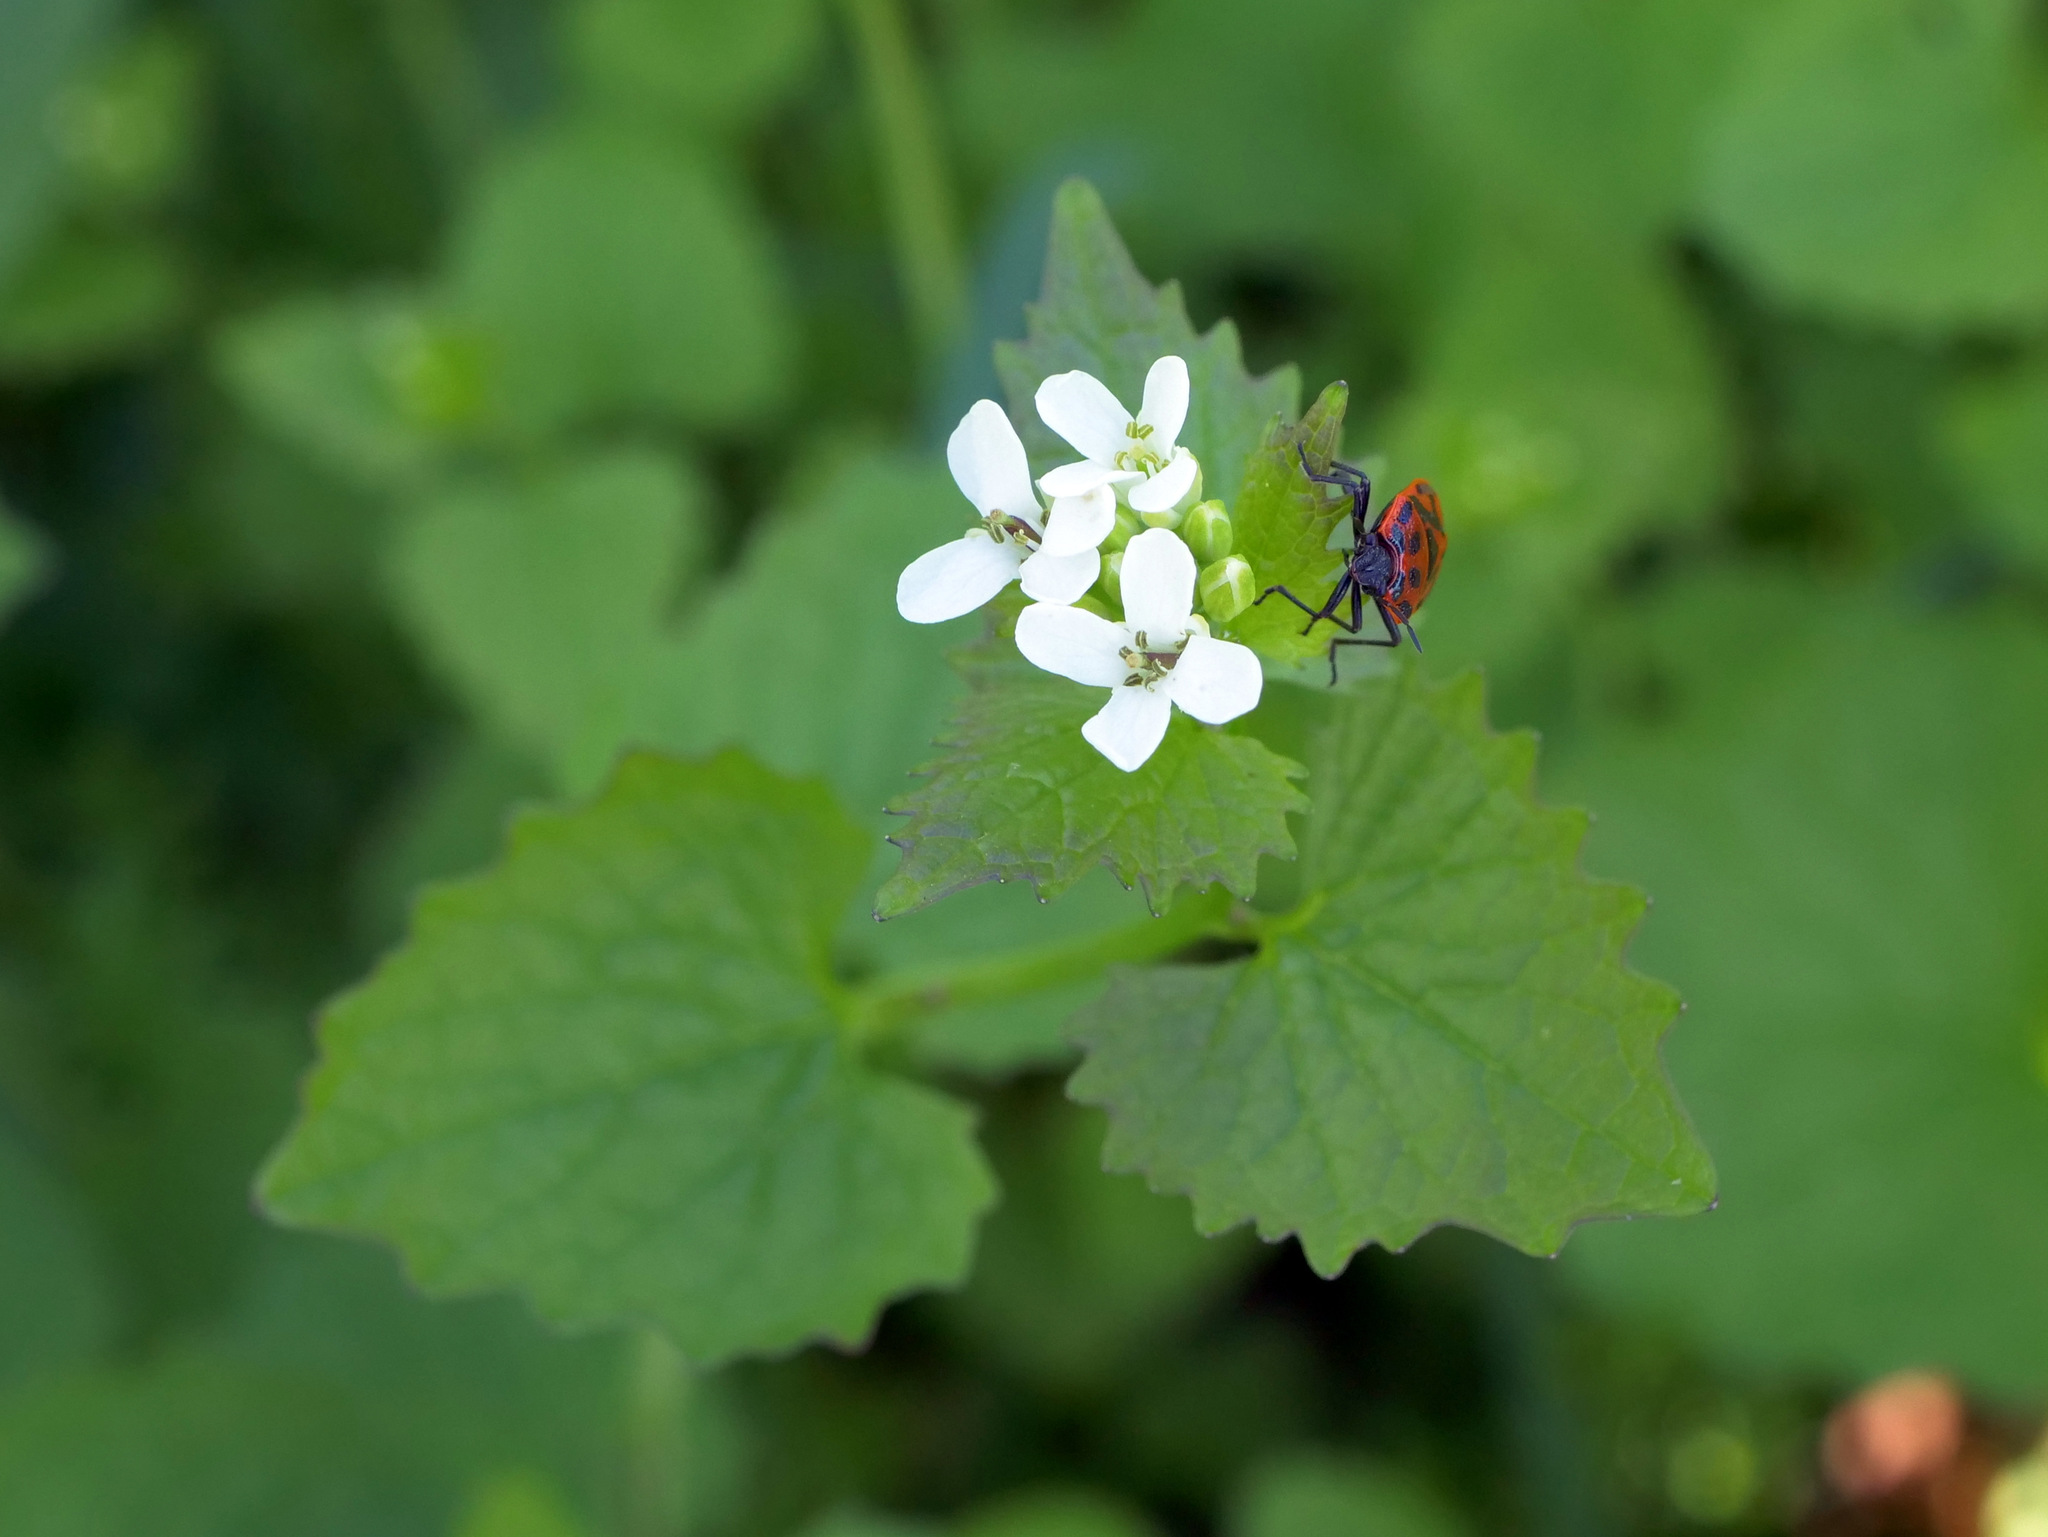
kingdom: Plantae
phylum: Tracheophyta
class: Magnoliopsida
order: Brassicales
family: Brassicaceae
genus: Alliaria
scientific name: Alliaria petiolata
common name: Garlic mustard
